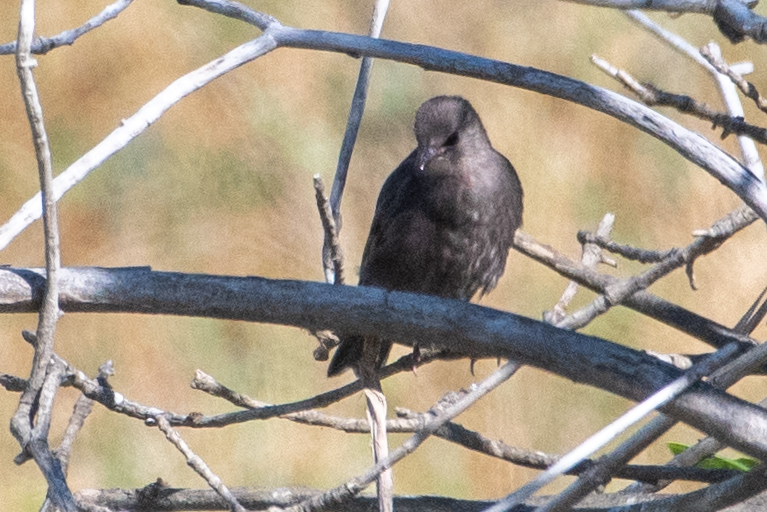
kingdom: Animalia
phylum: Chordata
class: Aves
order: Passeriformes
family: Sturnidae
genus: Sturnus
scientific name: Sturnus vulgaris
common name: Common starling
